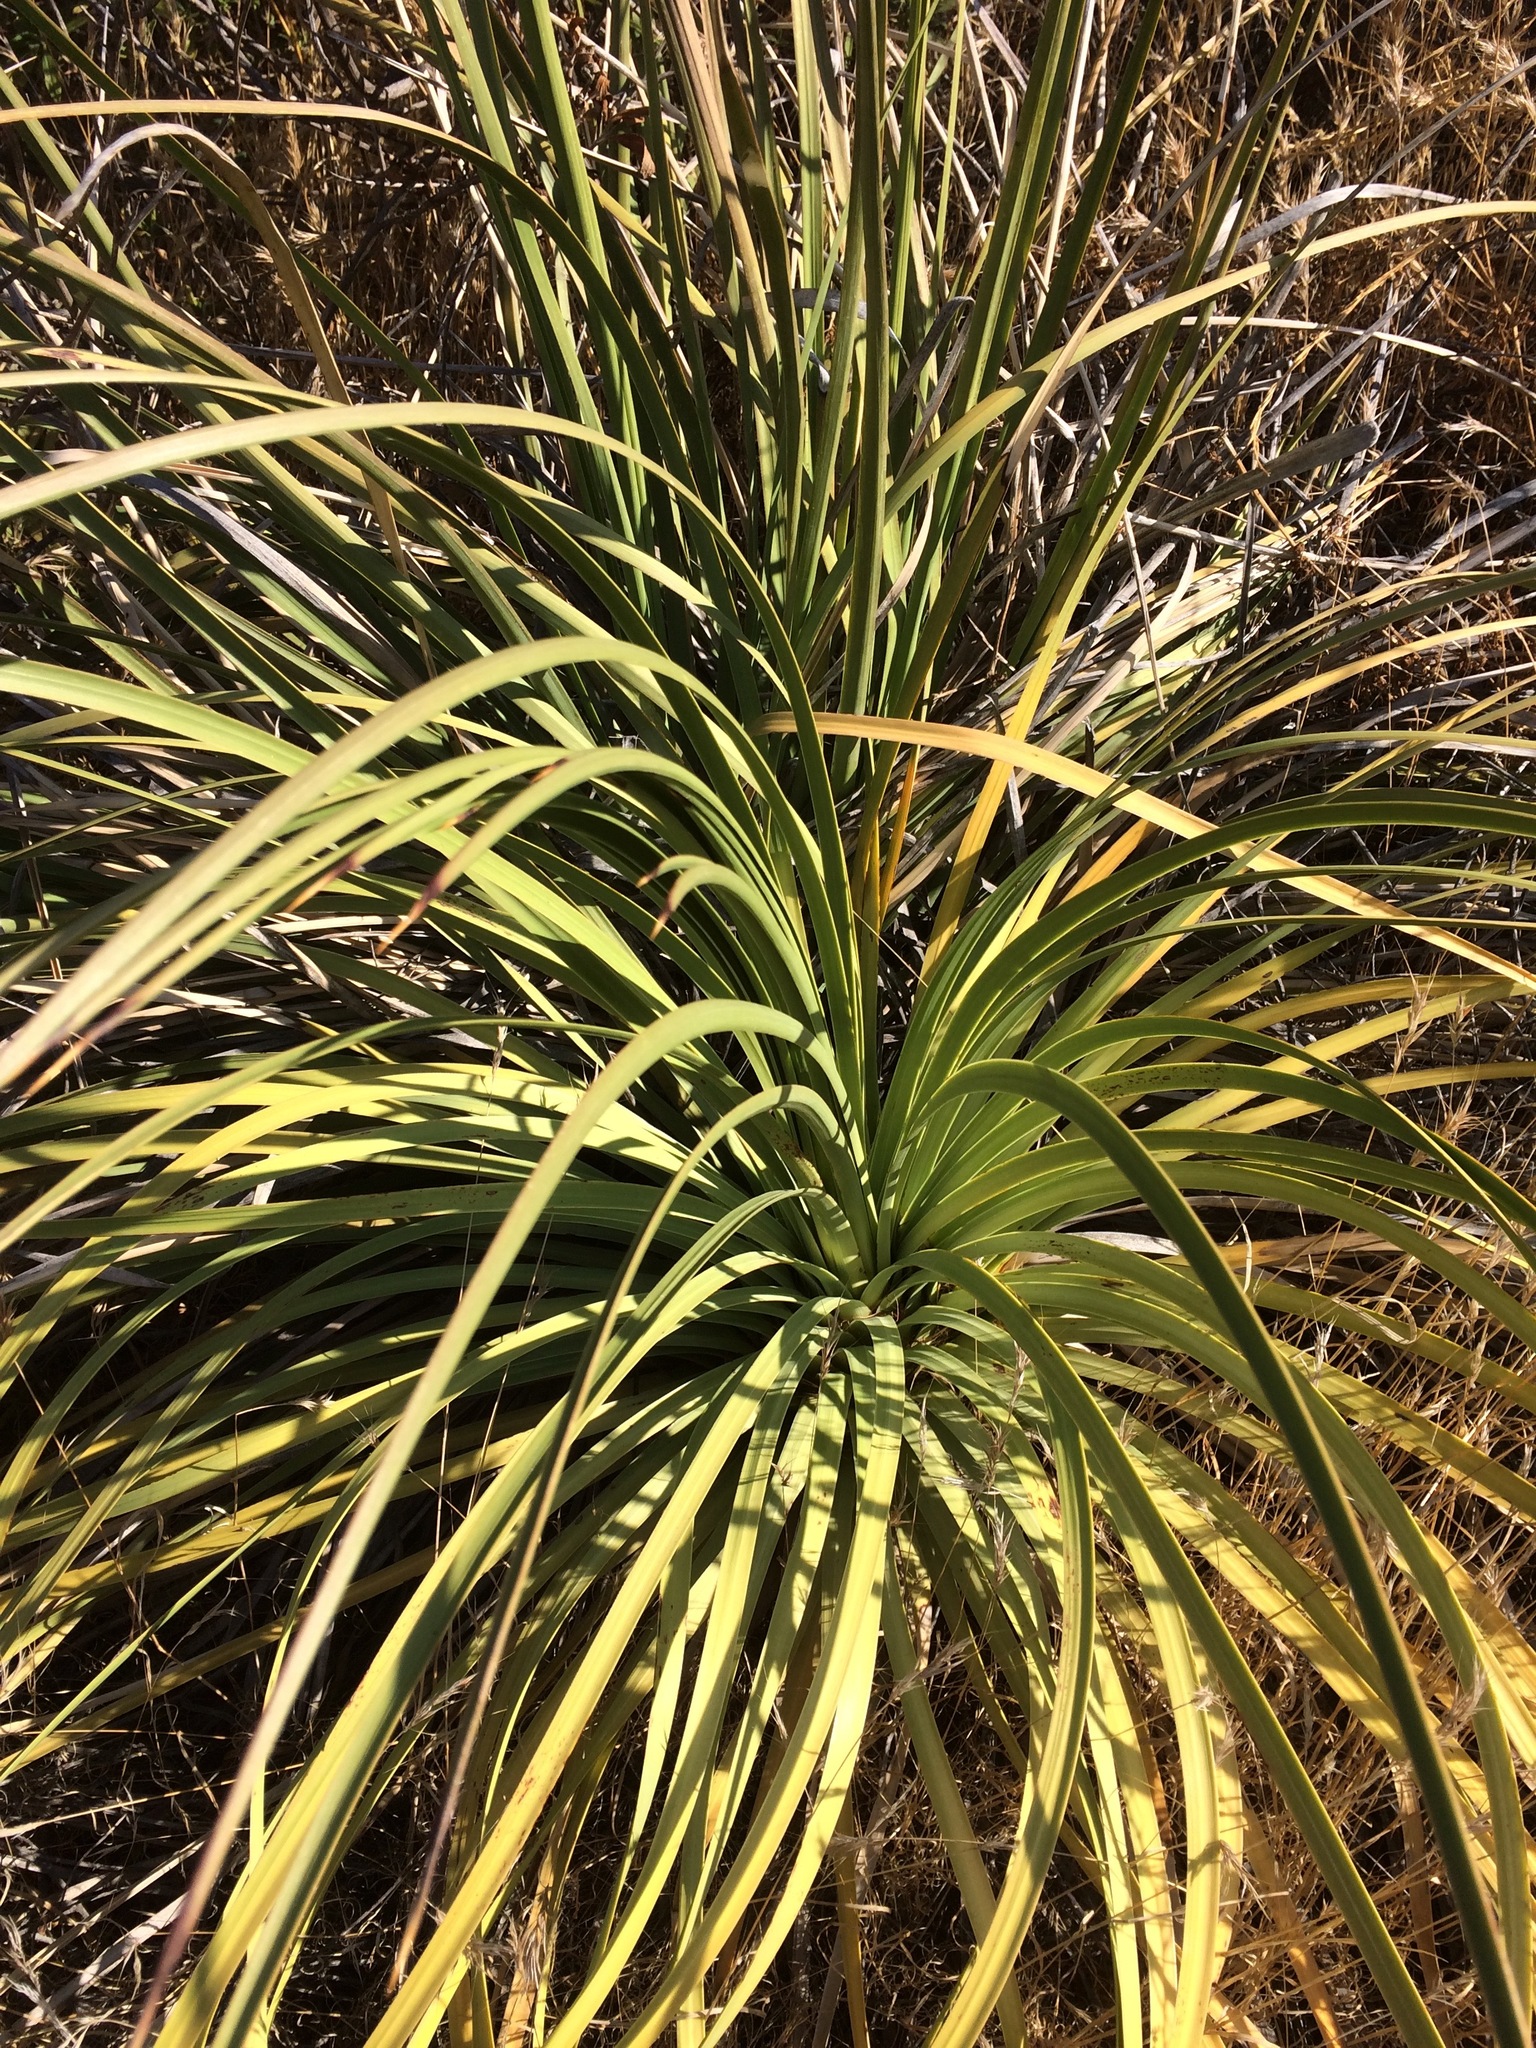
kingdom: Plantae
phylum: Tracheophyta
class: Liliopsida
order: Asparagales
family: Asparagaceae
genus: Hesperoyucca
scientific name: Hesperoyucca whipplei
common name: Our lord's-candle
